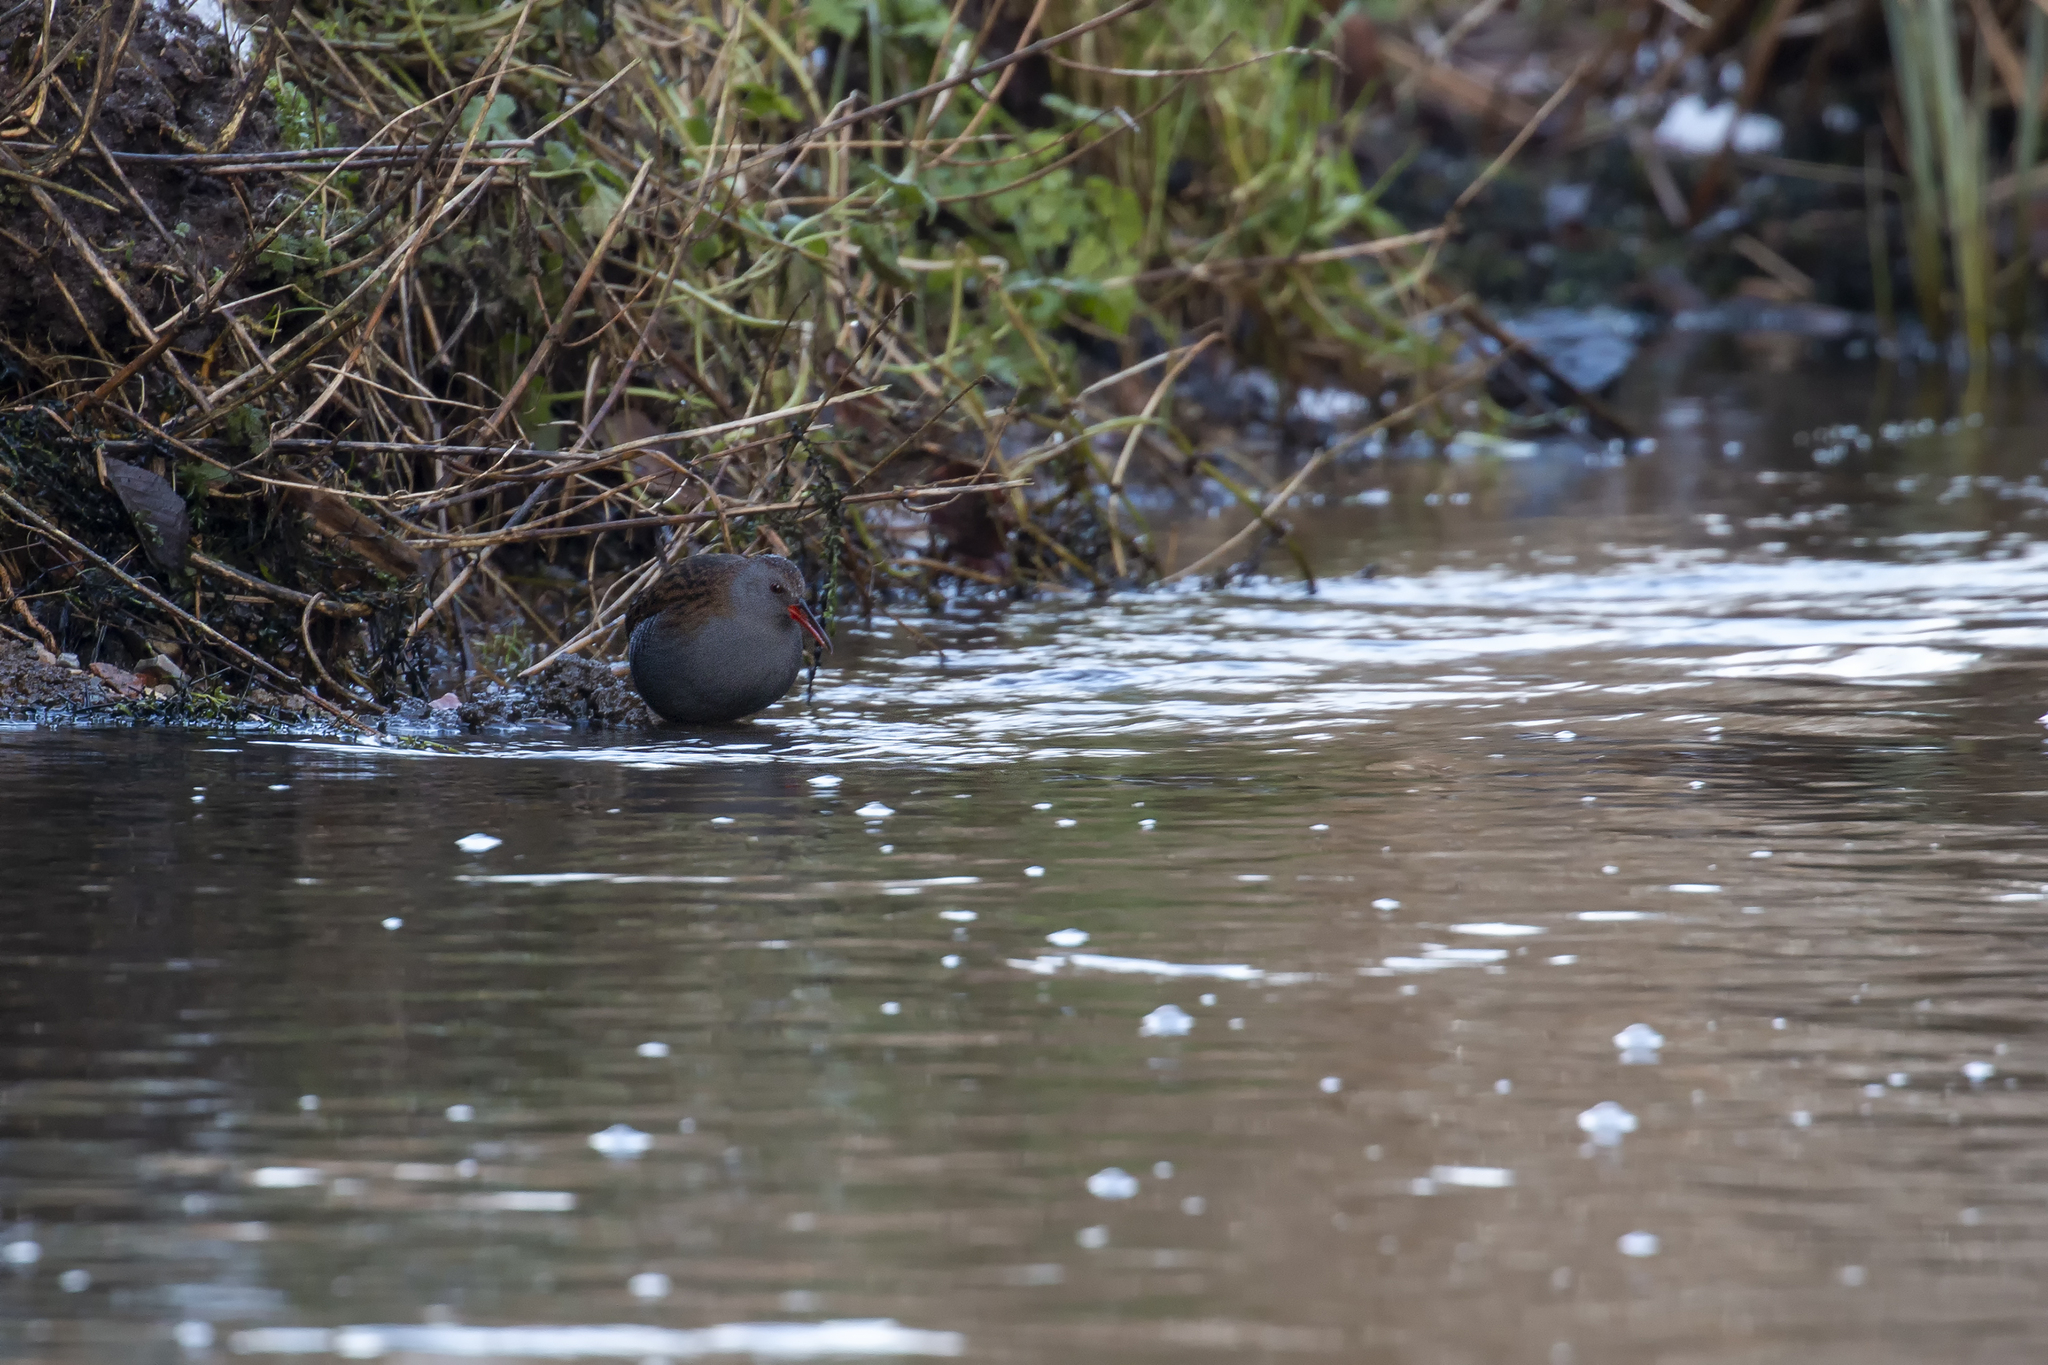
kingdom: Animalia
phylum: Chordata
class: Aves
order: Gruiformes
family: Rallidae
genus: Rallus
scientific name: Rallus aquaticus
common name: Water rail
